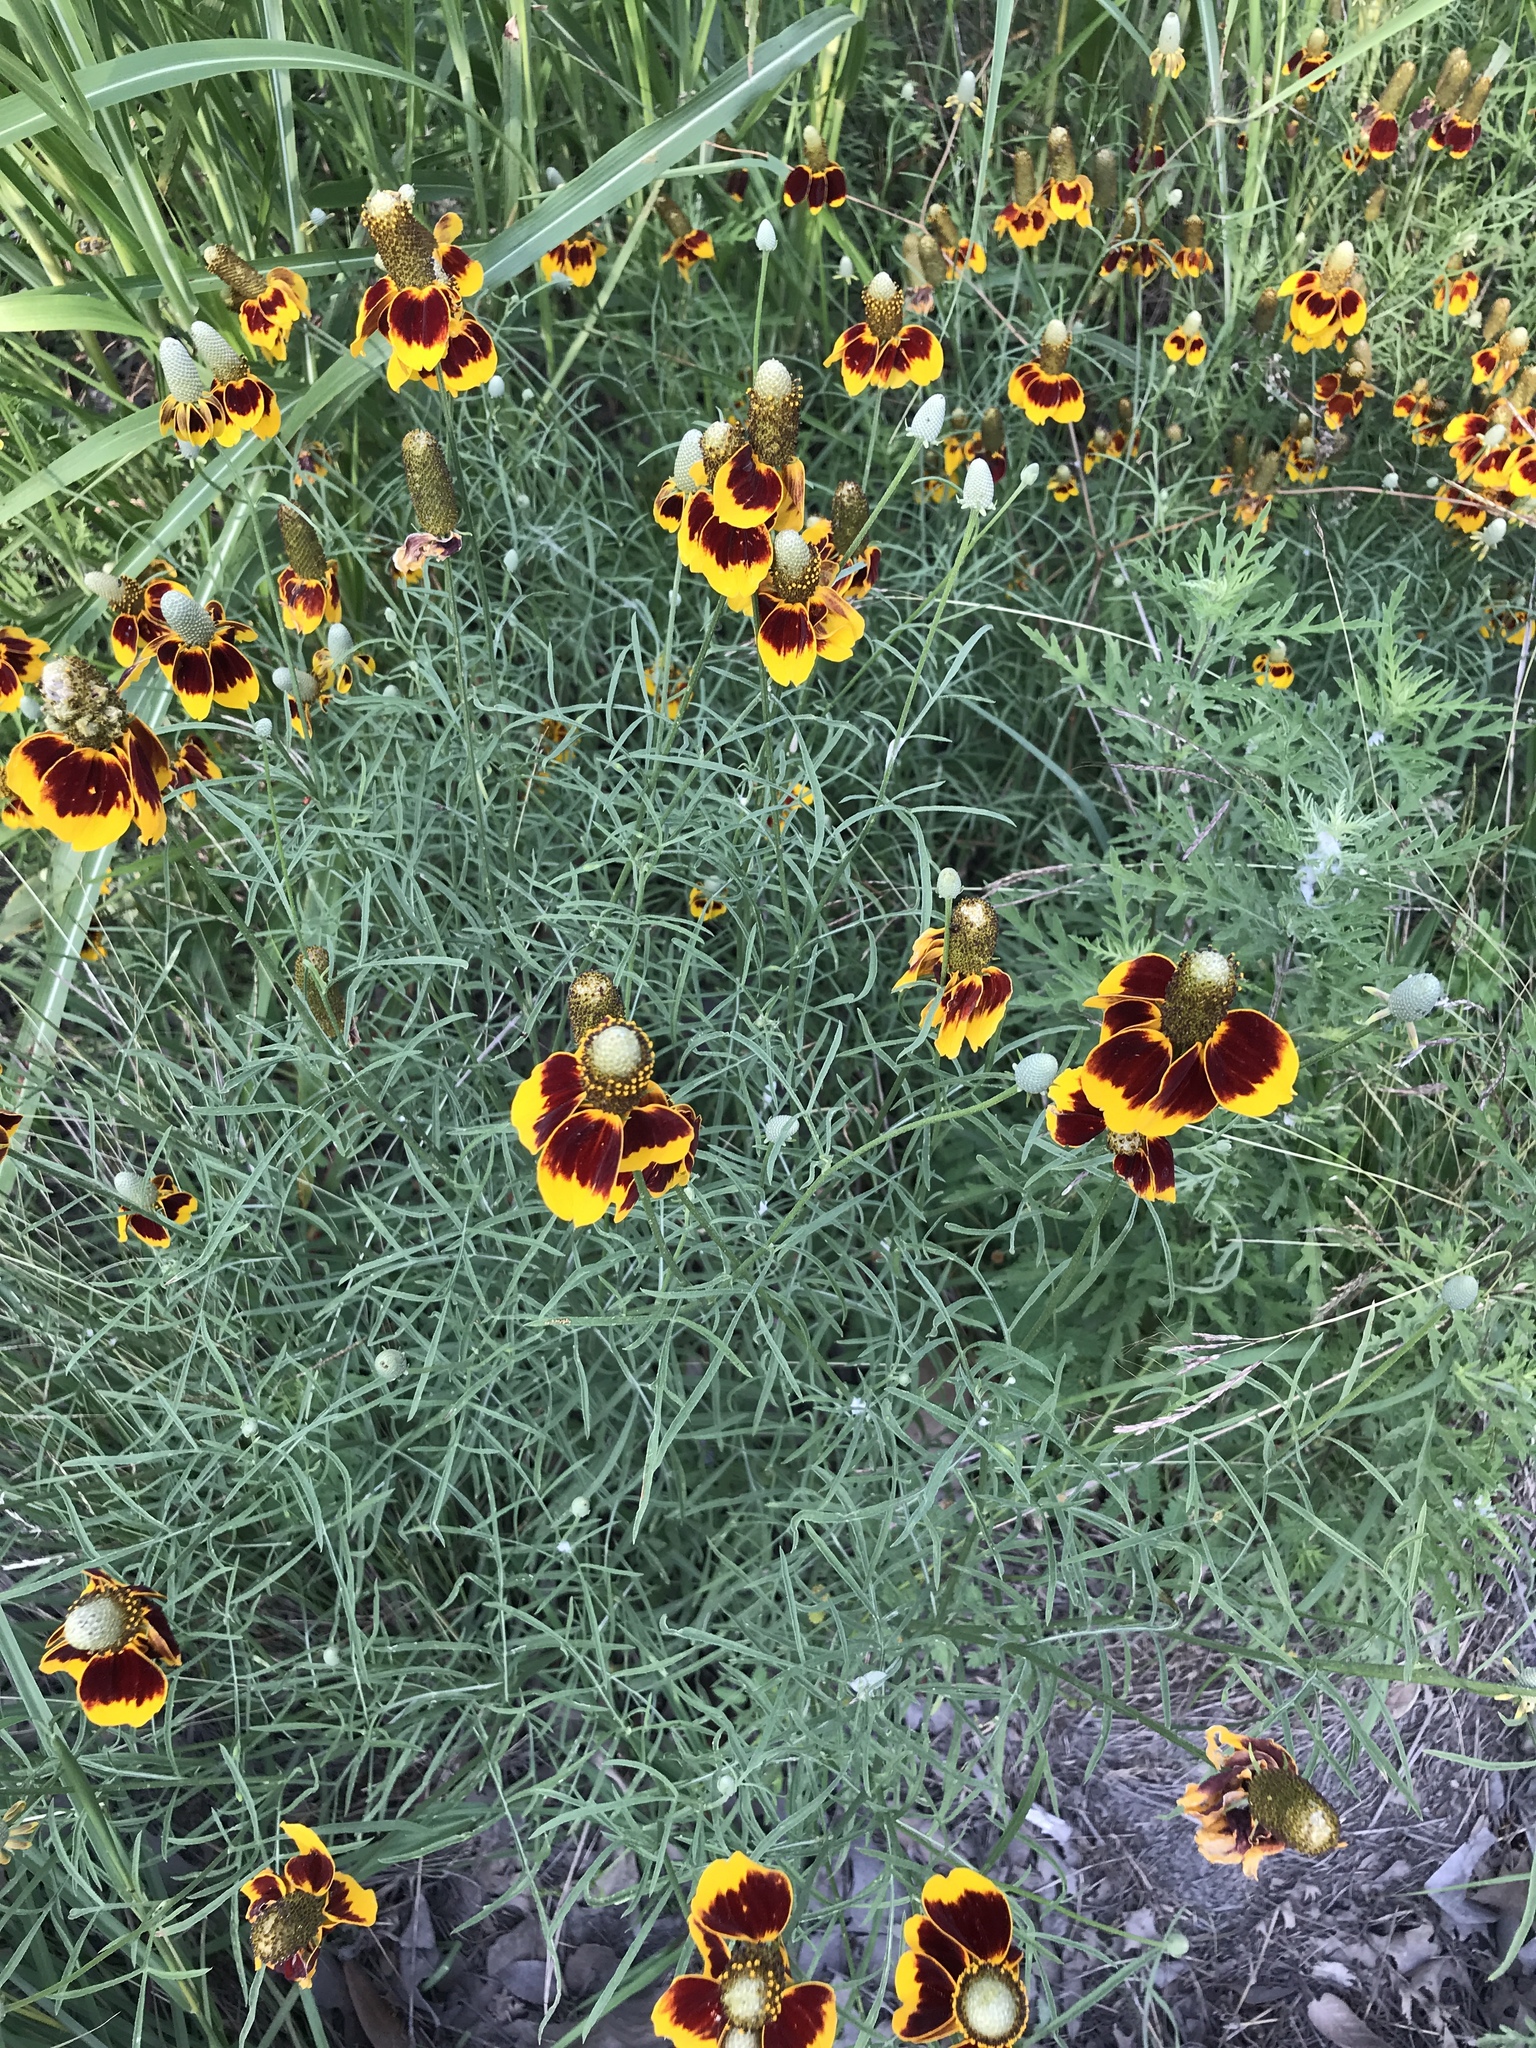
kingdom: Plantae
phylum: Tracheophyta
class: Magnoliopsida
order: Asterales
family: Asteraceae
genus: Ratibida
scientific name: Ratibida columnifera
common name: Prairie coneflower
